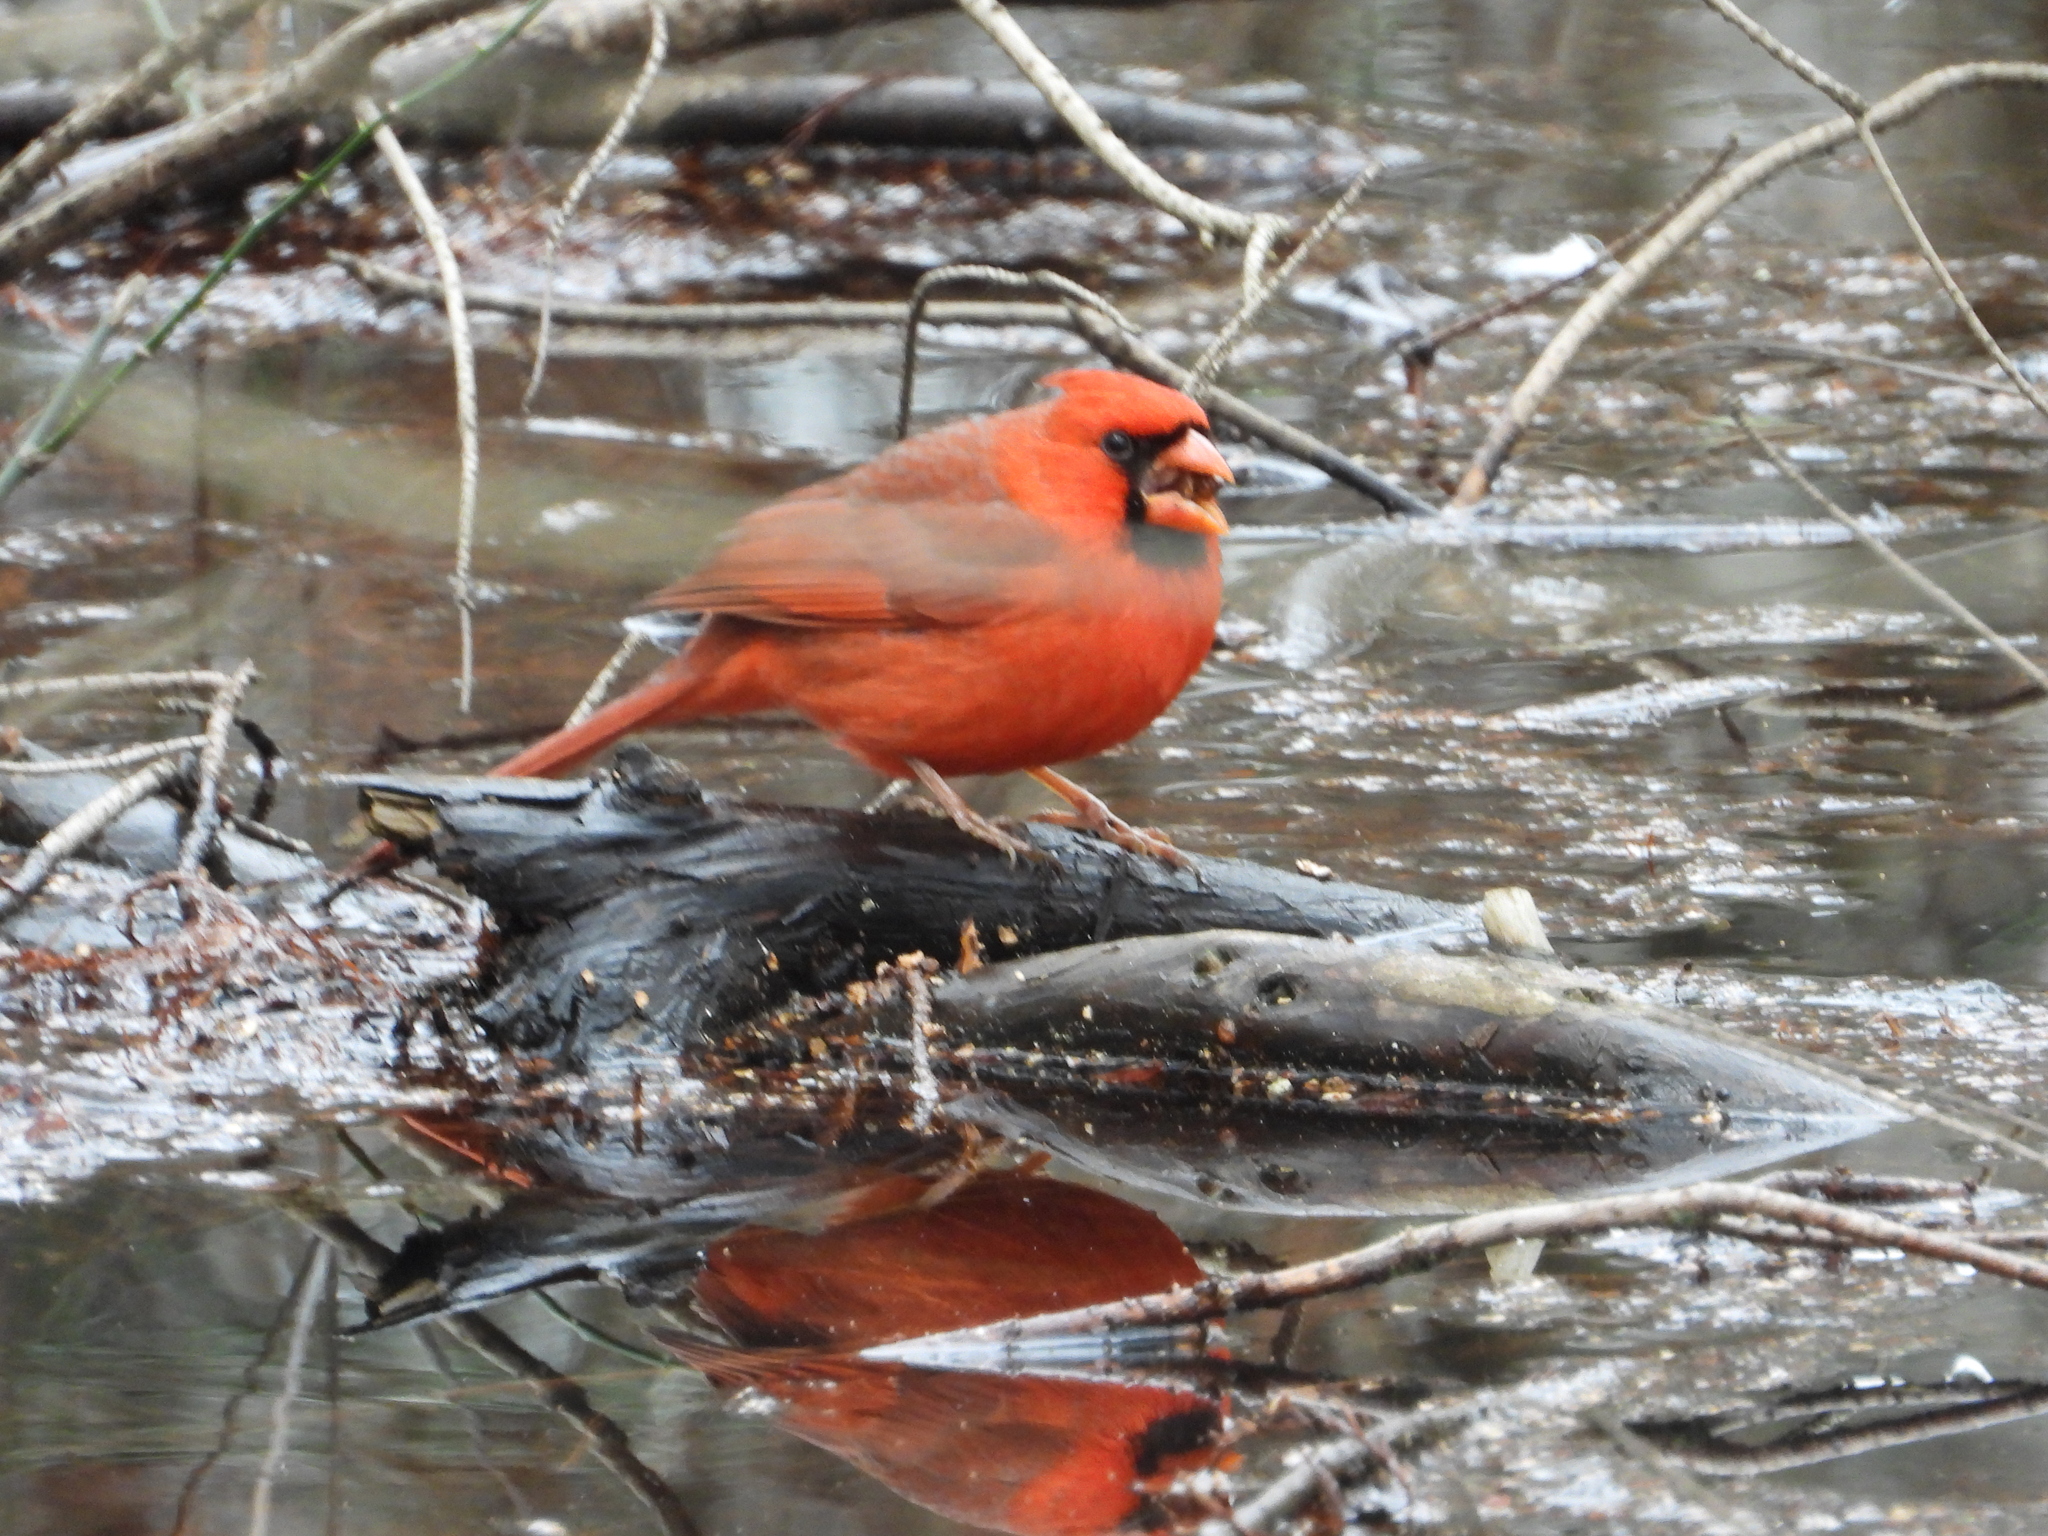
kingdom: Animalia
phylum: Chordata
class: Aves
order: Passeriformes
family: Cardinalidae
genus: Cardinalis
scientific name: Cardinalis cardinalis
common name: Northern cardinal
